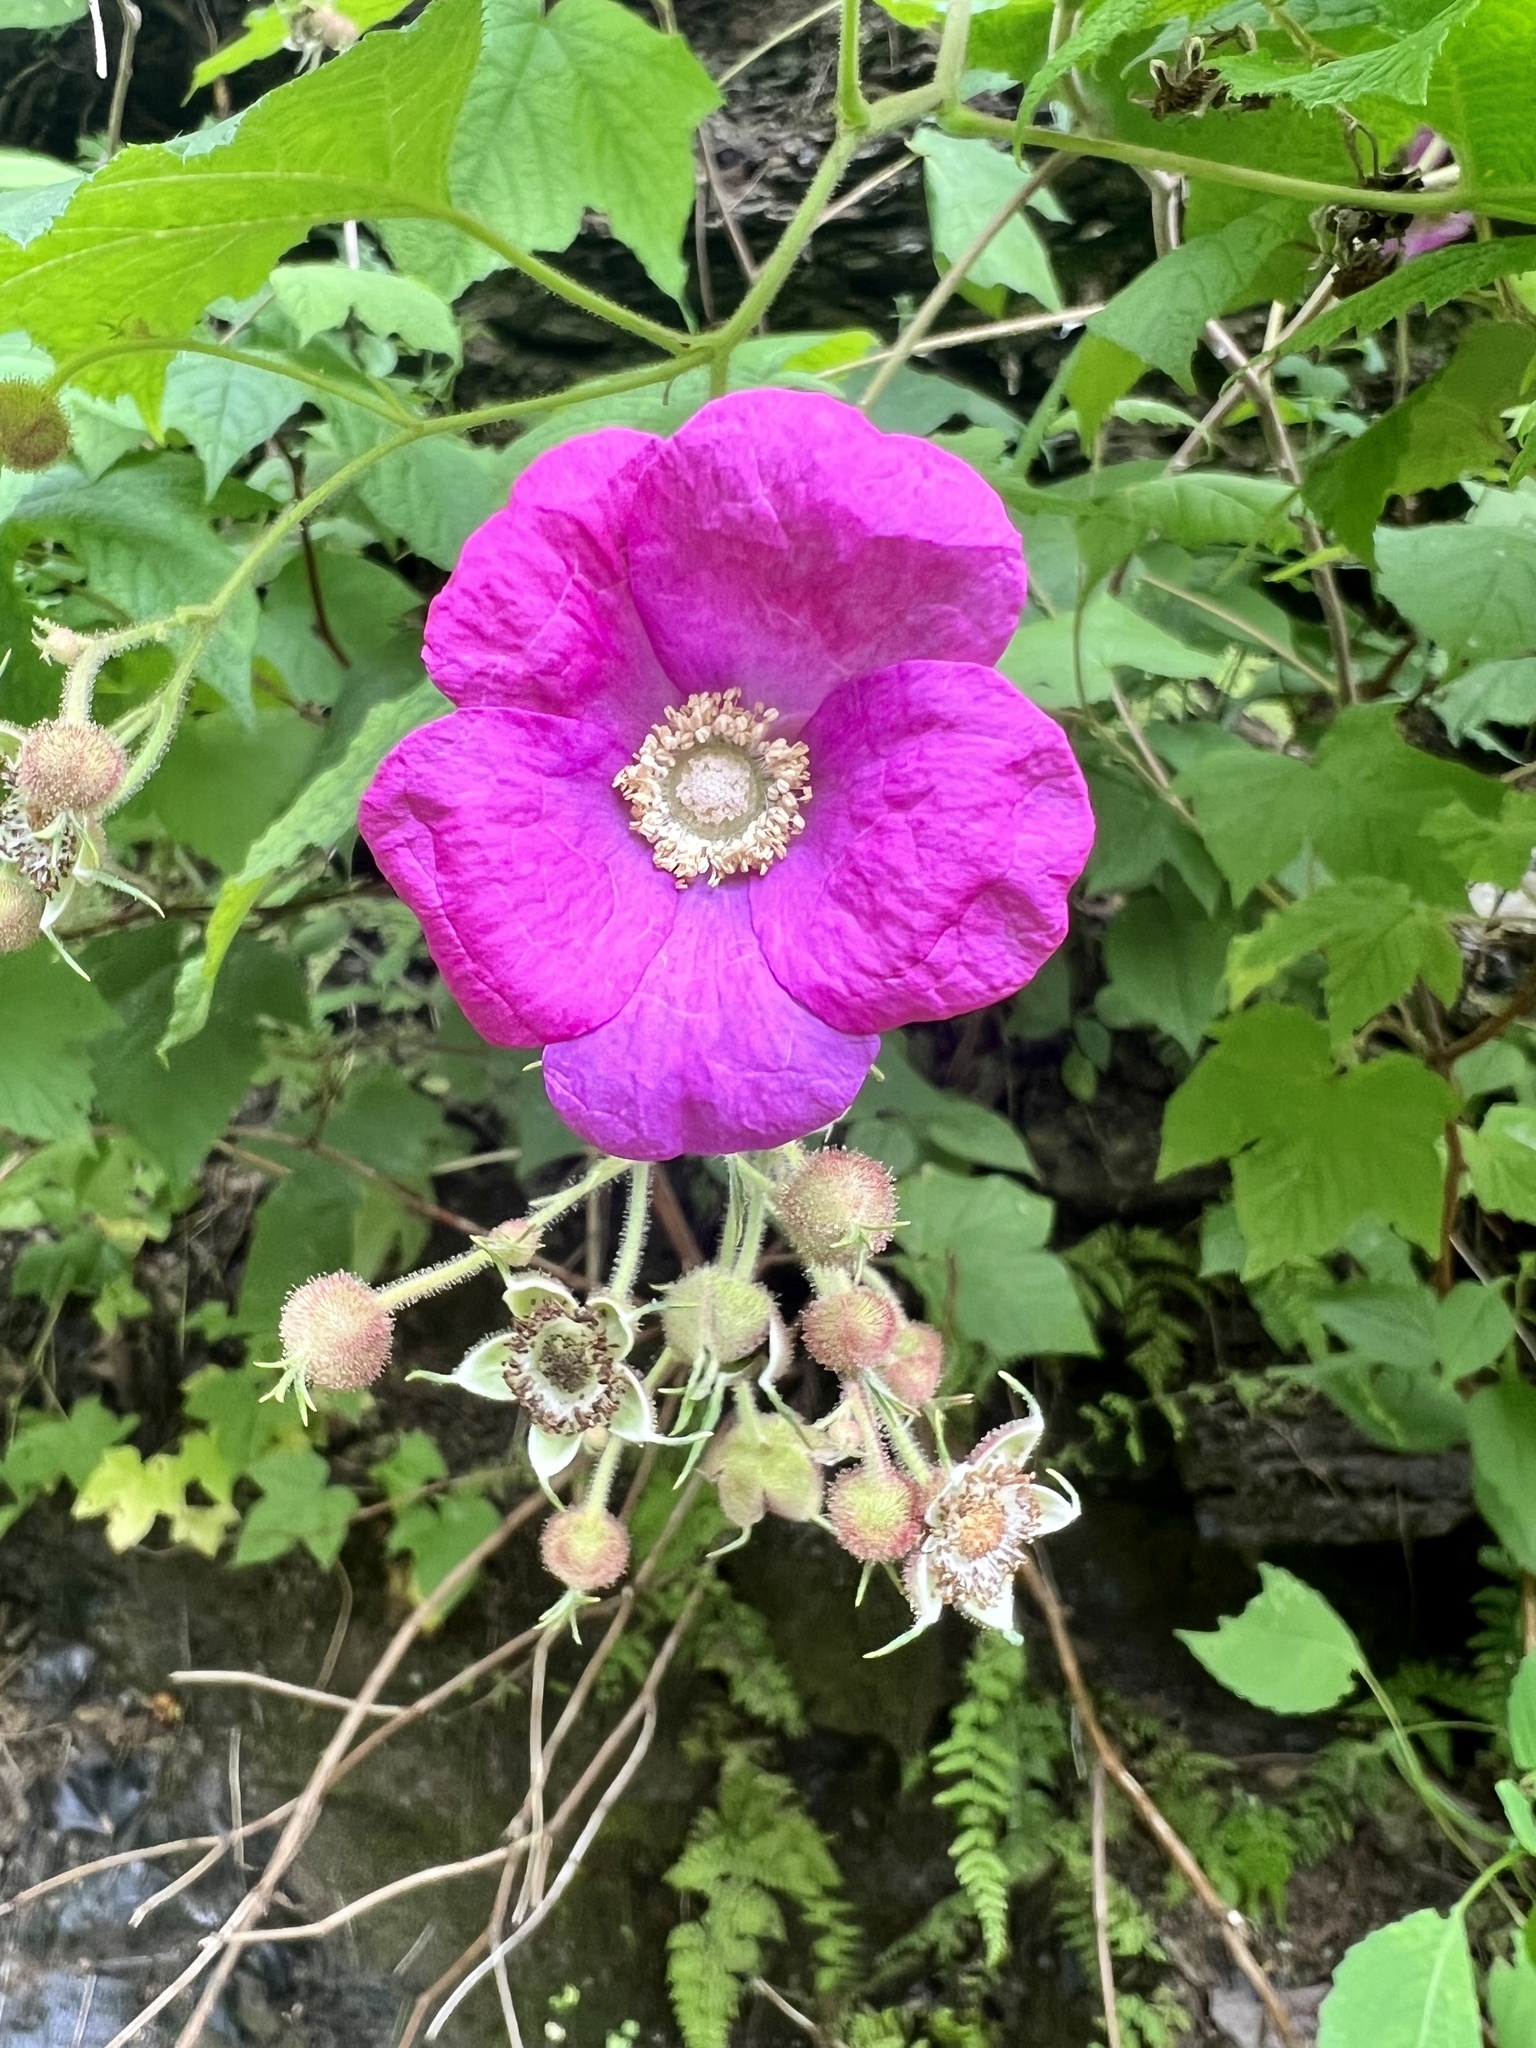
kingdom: Plantae
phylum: Tracheophyta
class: Magnoliopsida
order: Rosales
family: Rosaceae
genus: Rubus
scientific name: Rubus odoratus
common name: Purple-flowered raspberry
